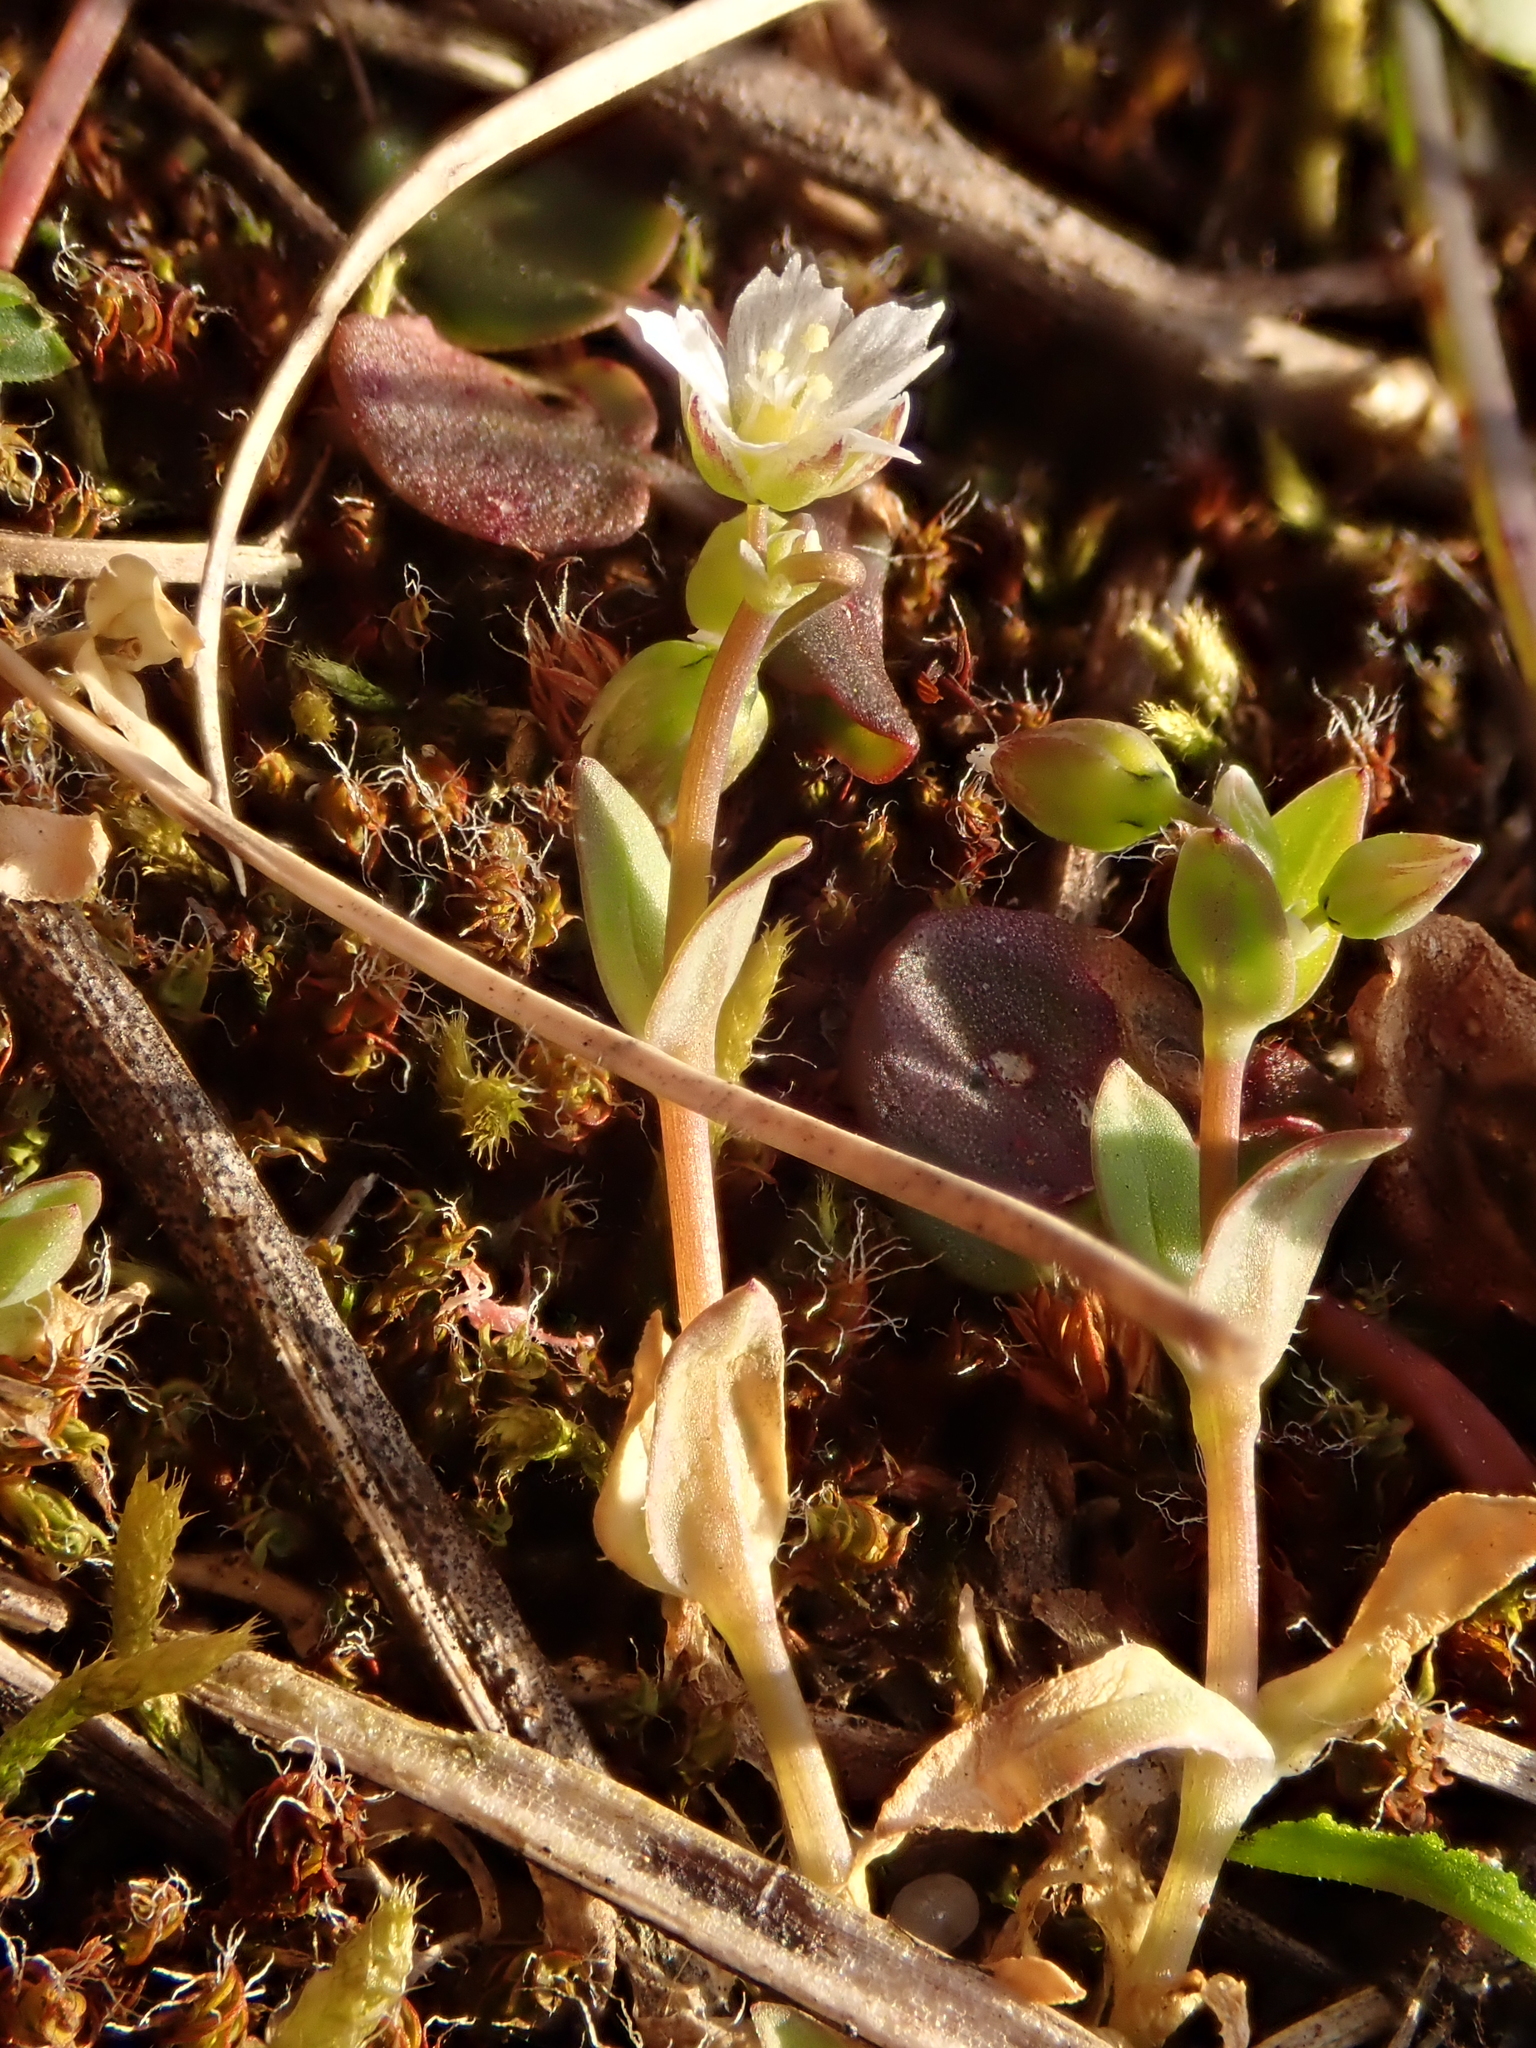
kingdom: Plantae
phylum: Tracheophyta
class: Magnoliopsida
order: Caryophyllales
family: Caryophyllaceae
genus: Holosteum
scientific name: Holosteum umbellatum
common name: Jagged chickweed
